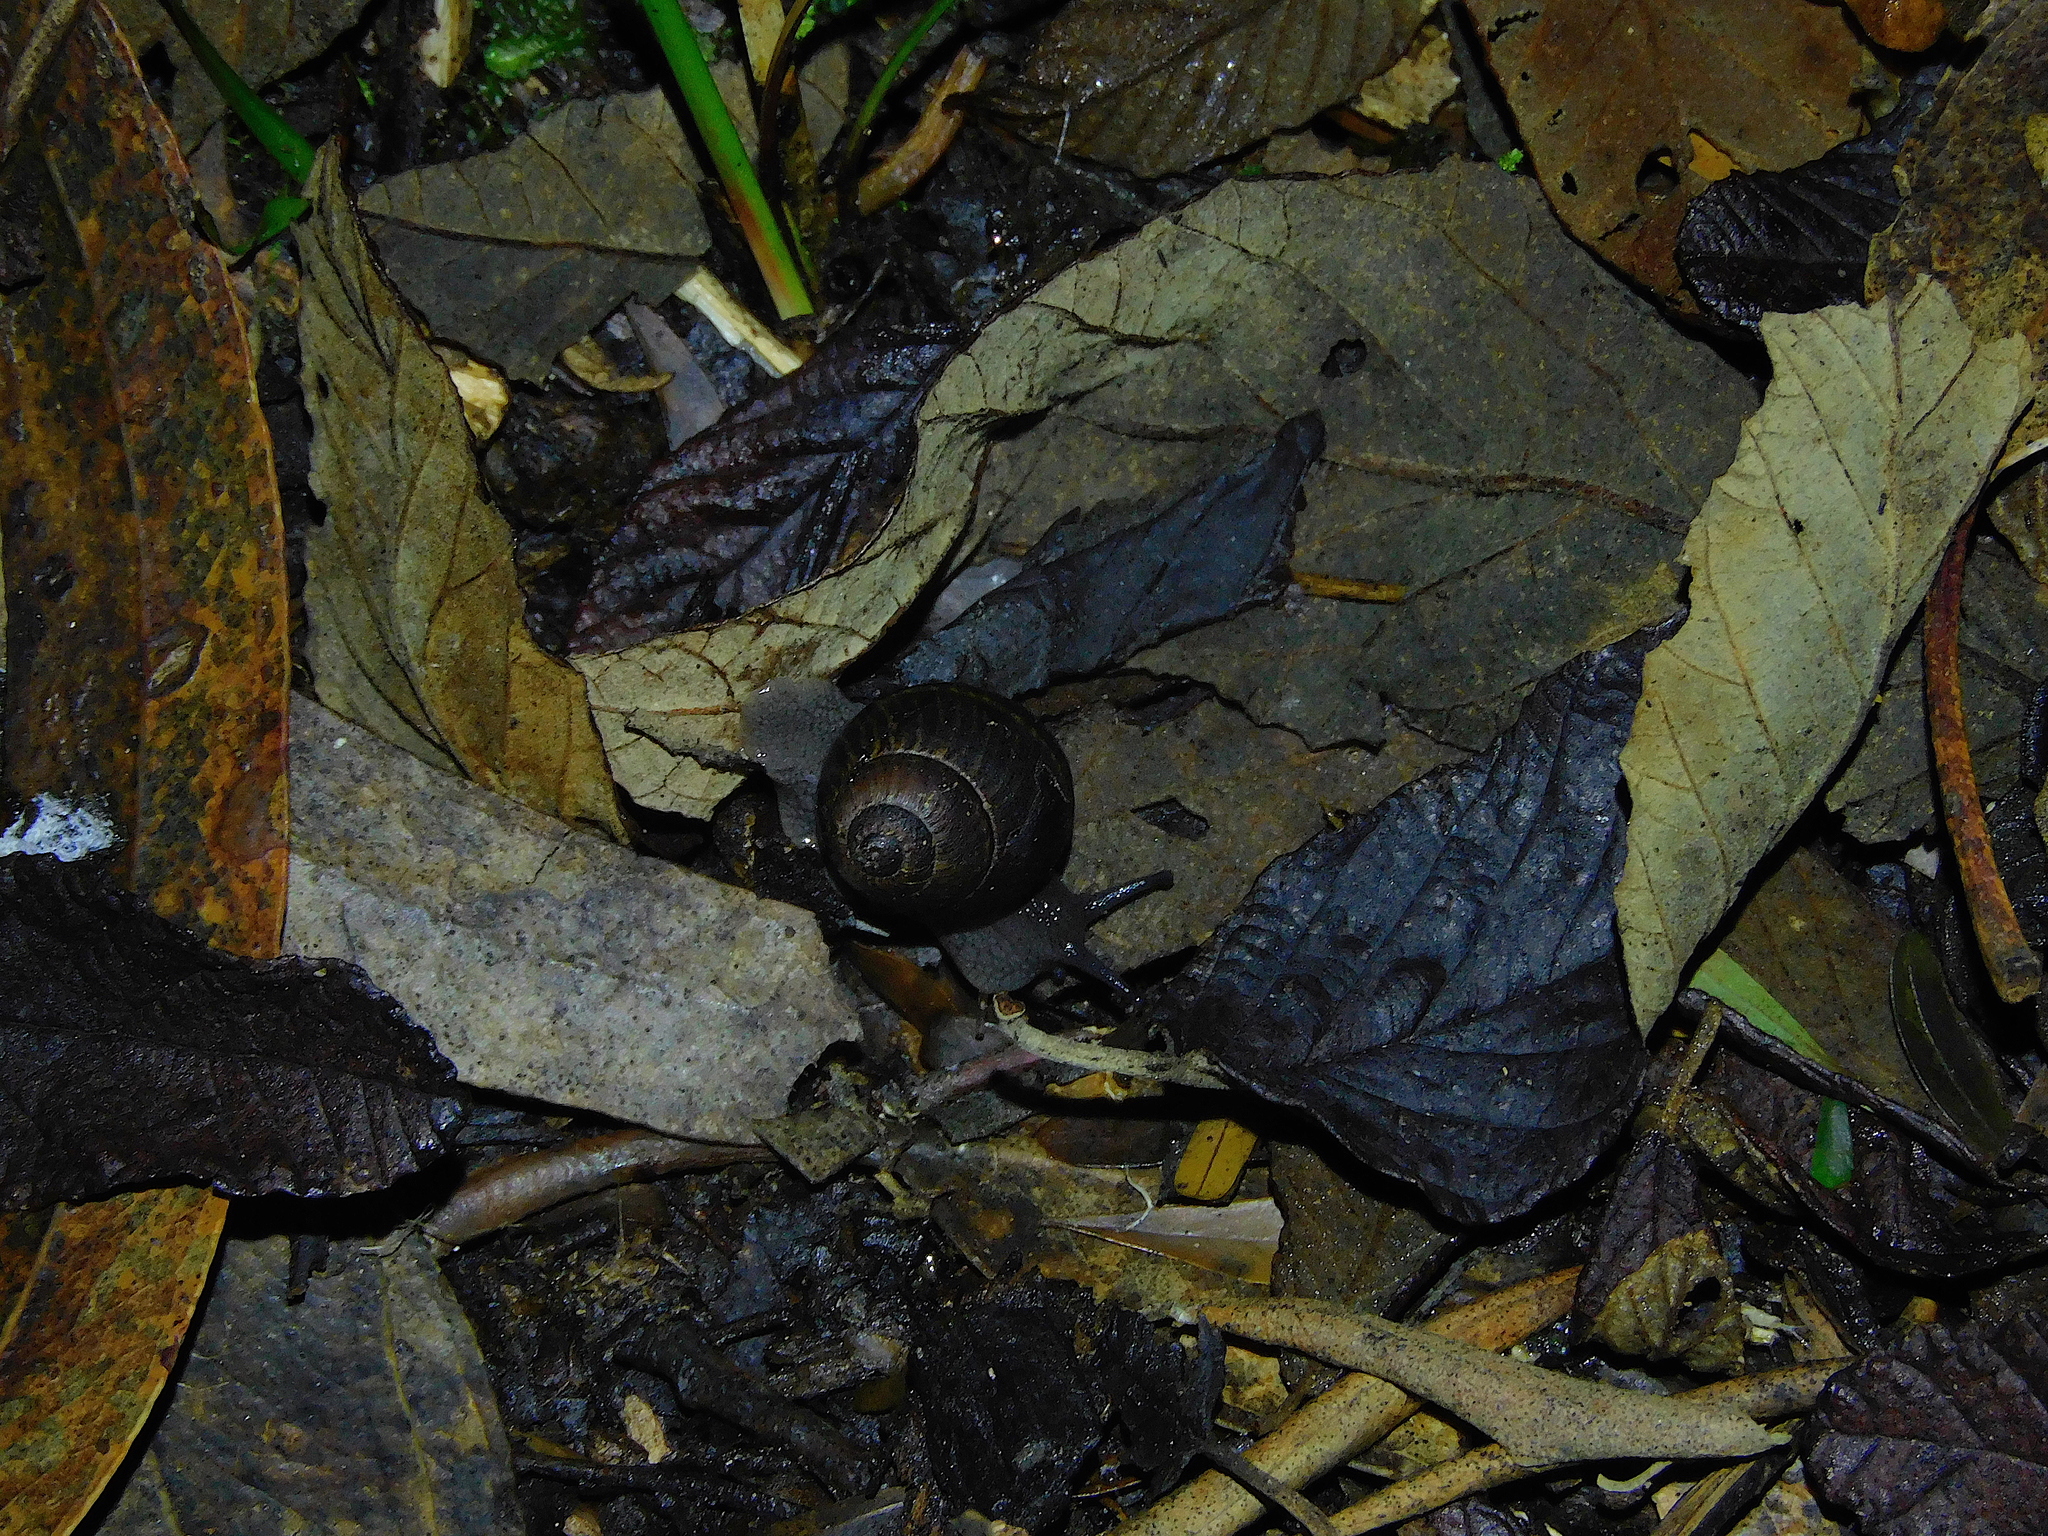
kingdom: Animalia
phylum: Mollusca
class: Gastropoda
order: Stylommatophora
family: Caryodidae
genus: Caryodes
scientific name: Caryodes dufresnii
